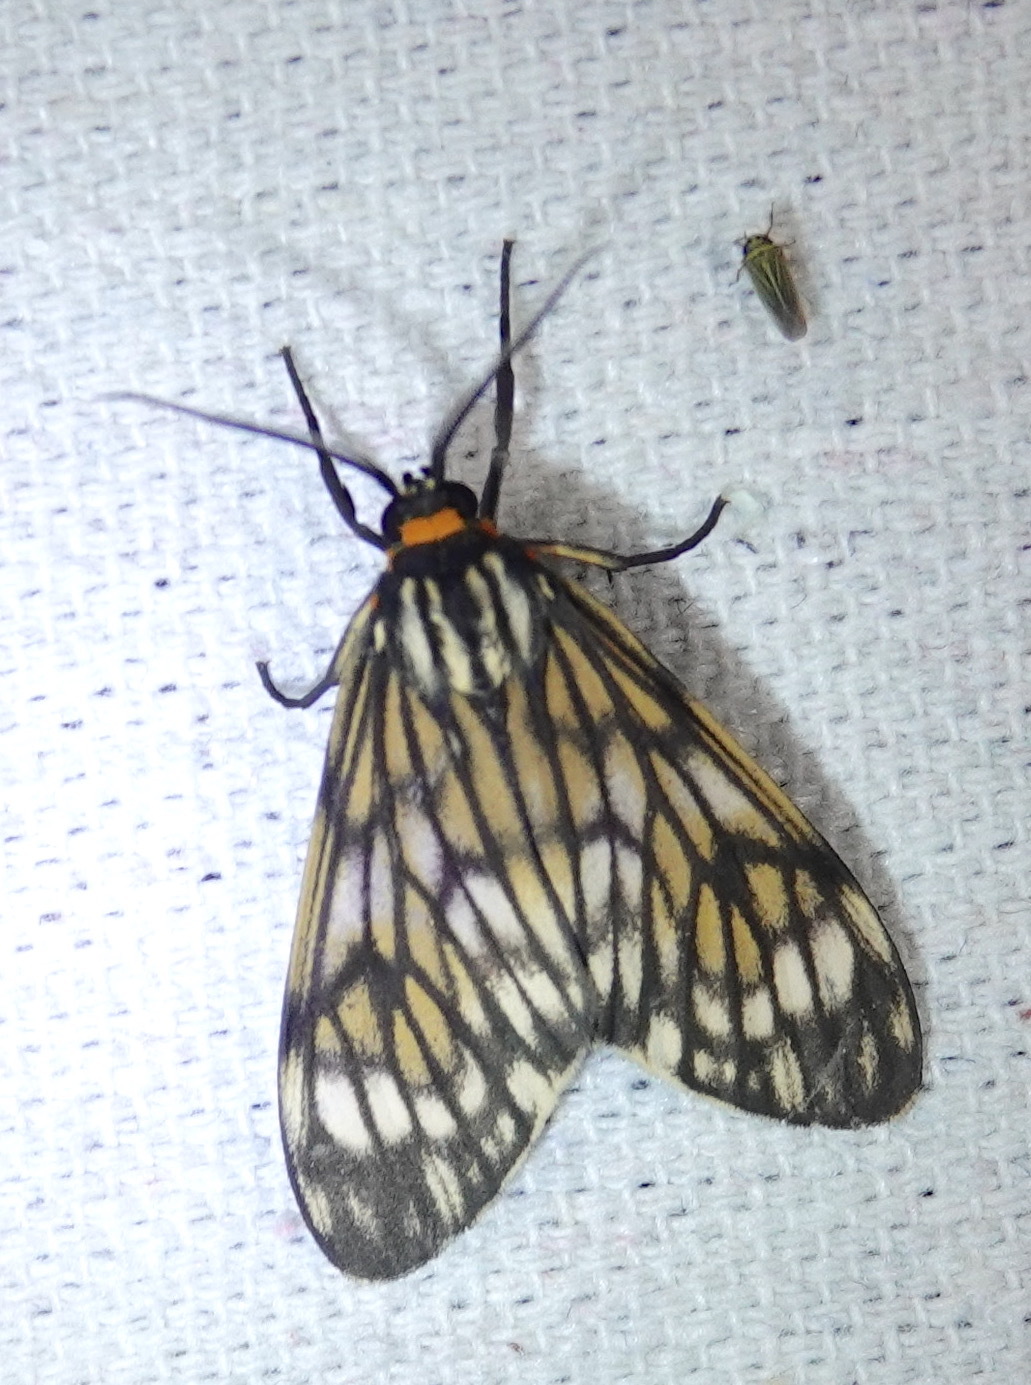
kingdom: Animalia
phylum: Arthropoda
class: Insecta
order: Lepidoptera
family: Erebidae
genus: Theages
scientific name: Theages decorum
